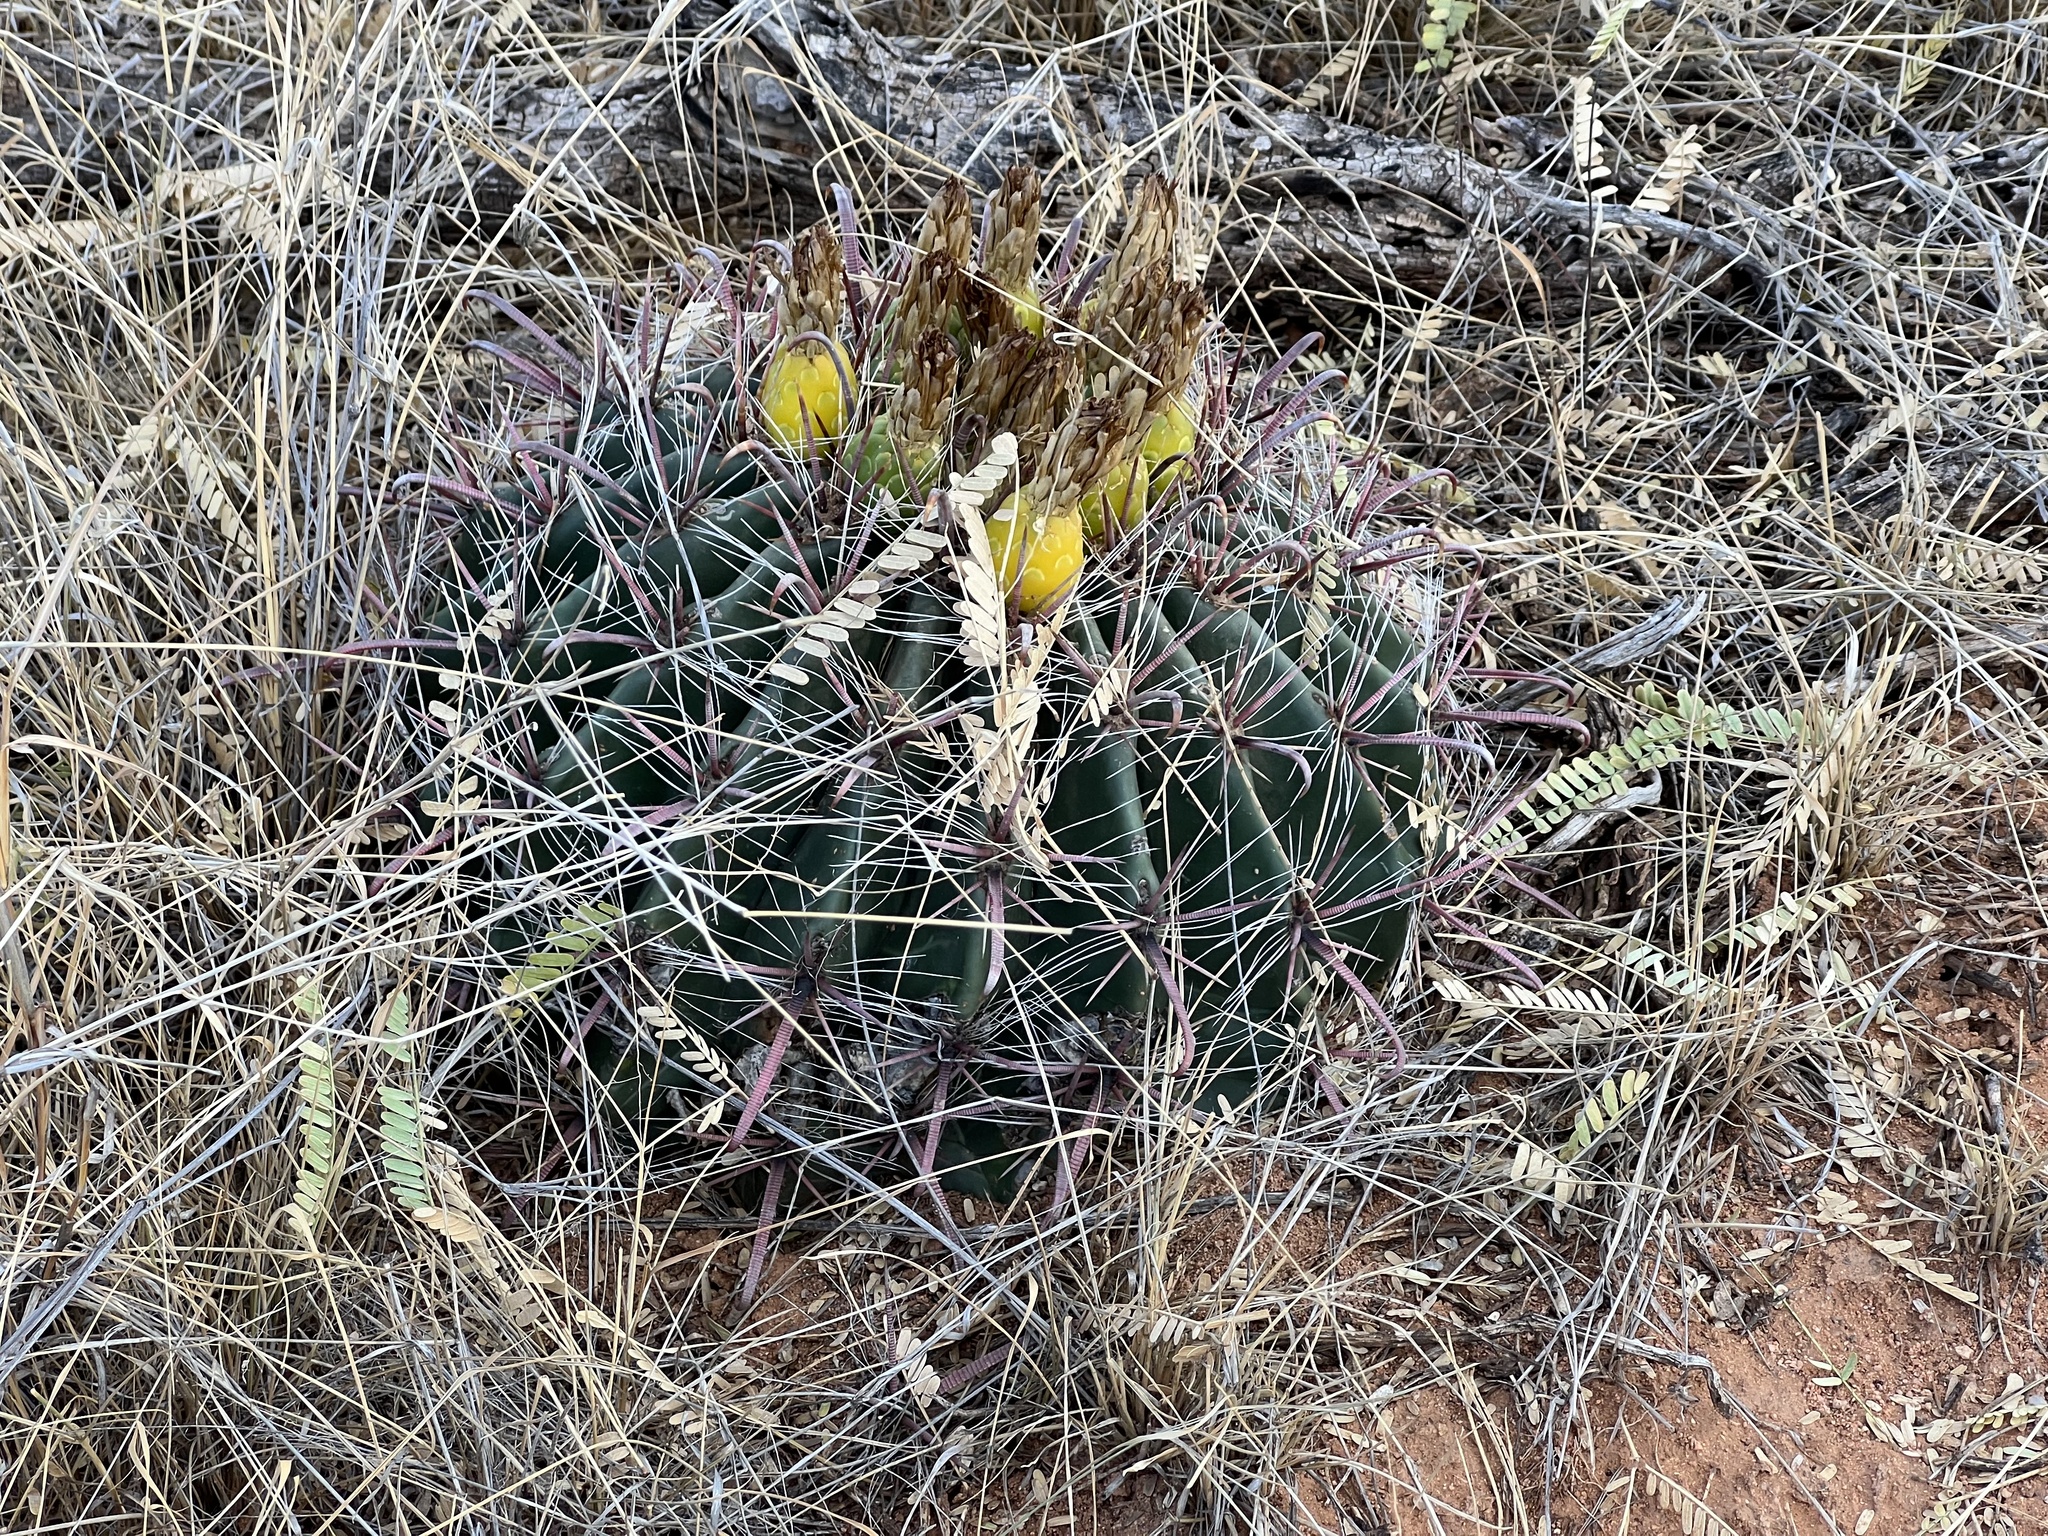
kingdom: Plantae
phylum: Tracheophyta
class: Magnoliopsida
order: Caryophyllales
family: Cactaceae
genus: Ferocactus
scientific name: Ferocactus wislizeni
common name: Candy barrel cactus
